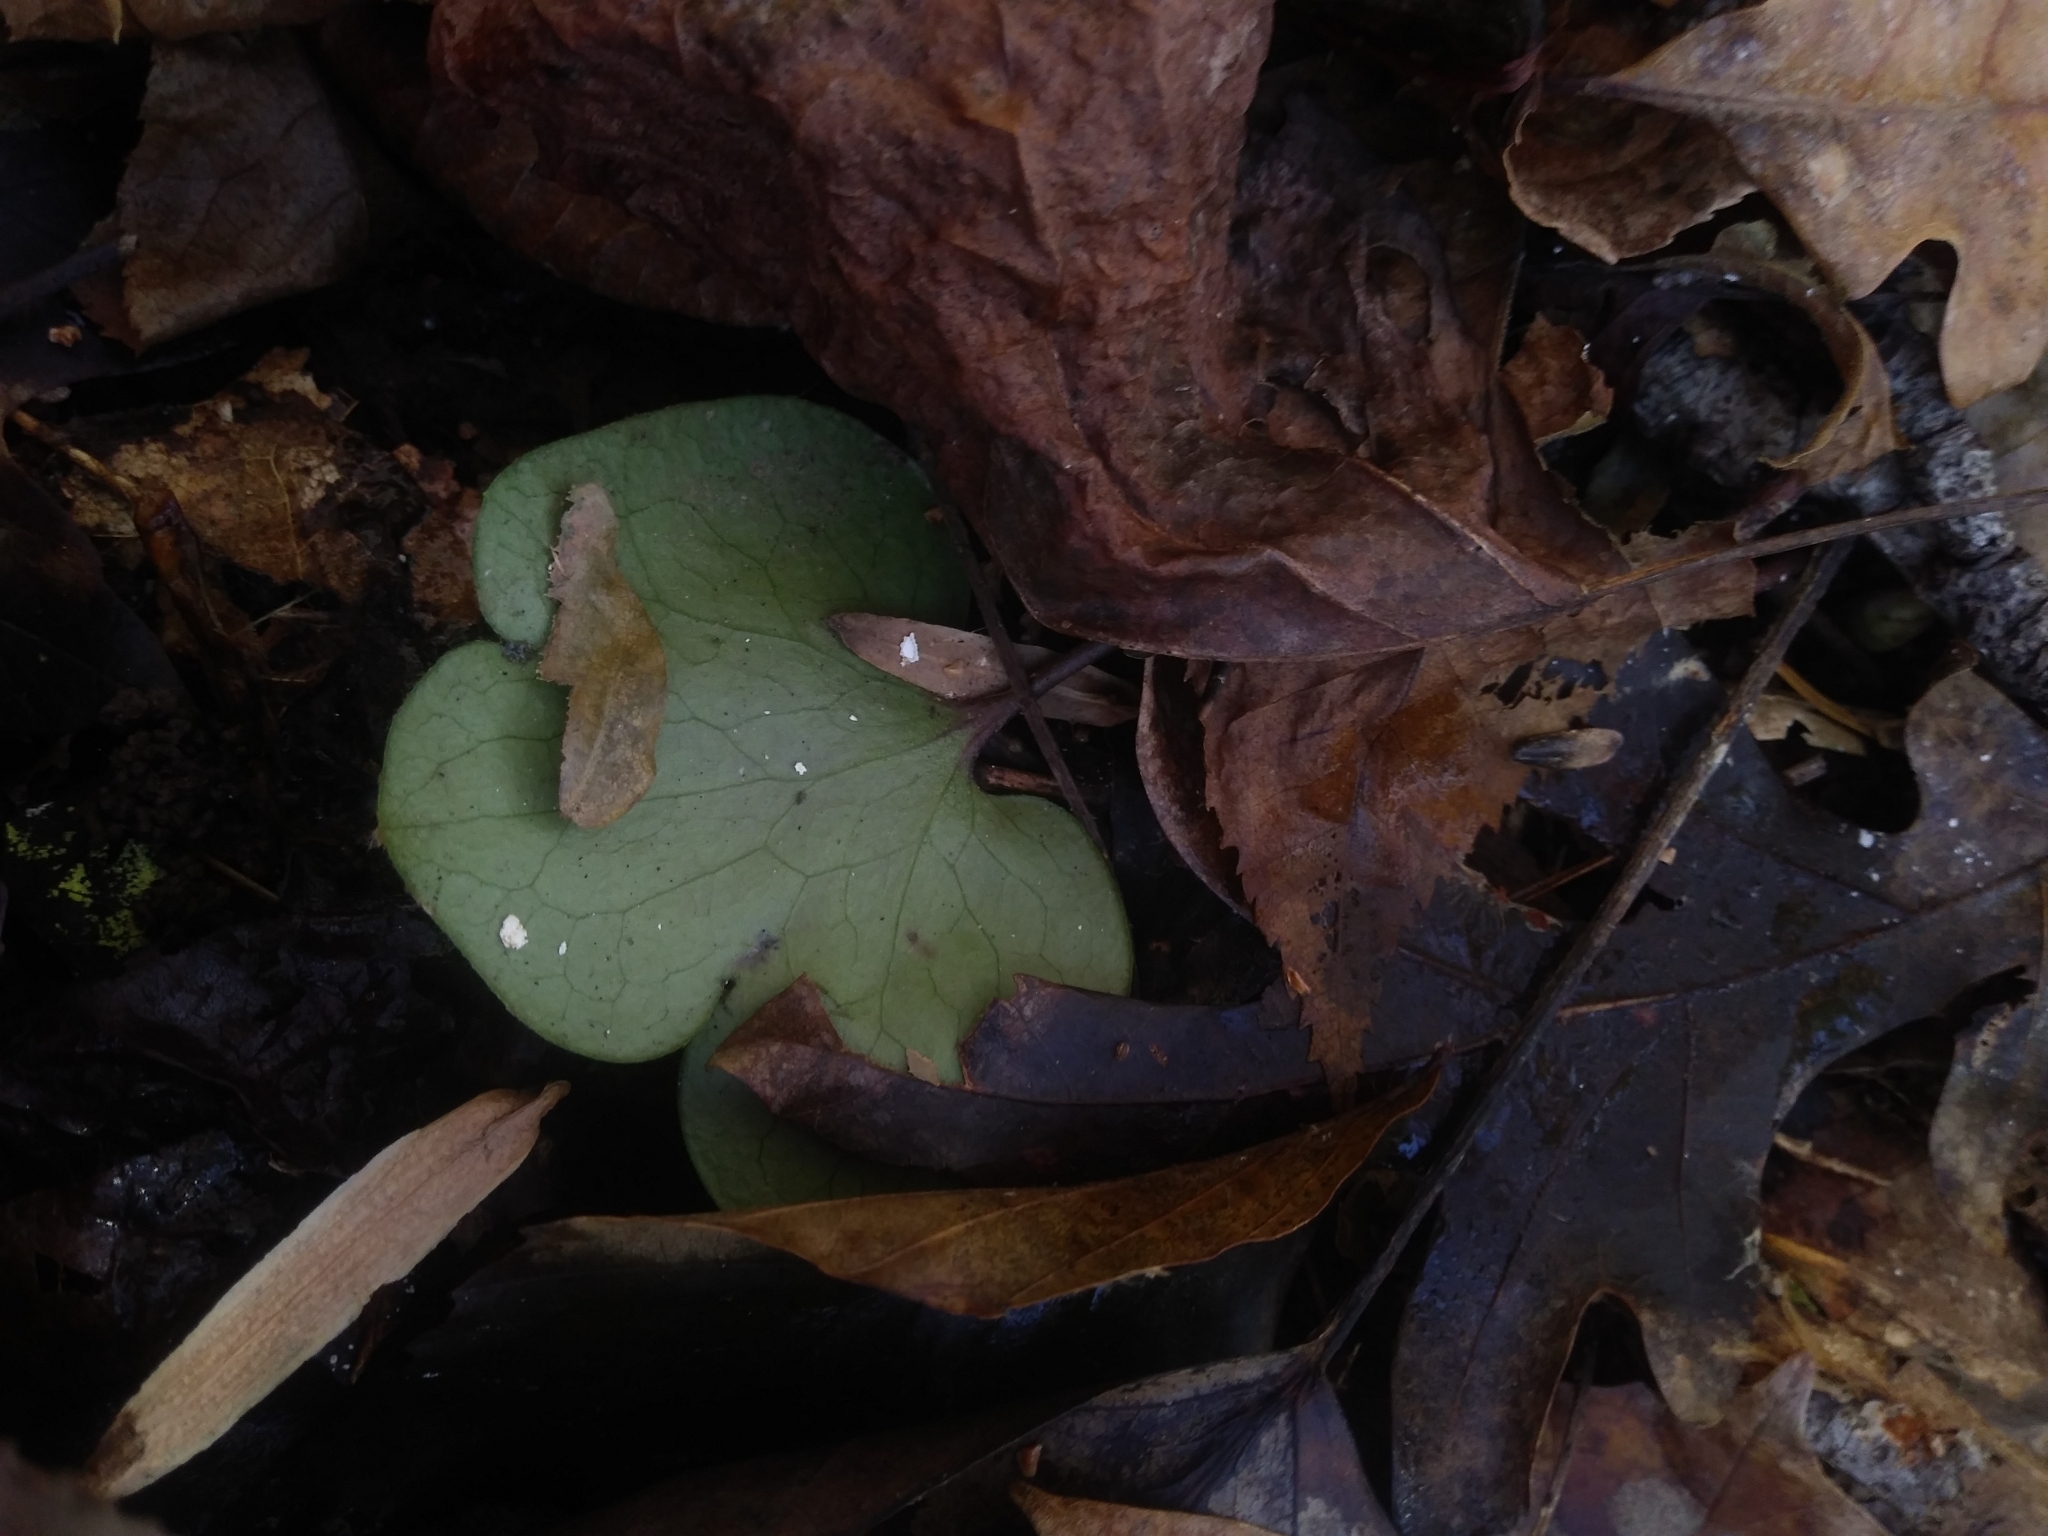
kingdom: Plantae
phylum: Tracheophyta
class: Magnoliopsida
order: Ranunculales
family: Ranunculaceae
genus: Hepatica
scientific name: Hepatica americana
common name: American hepatica
